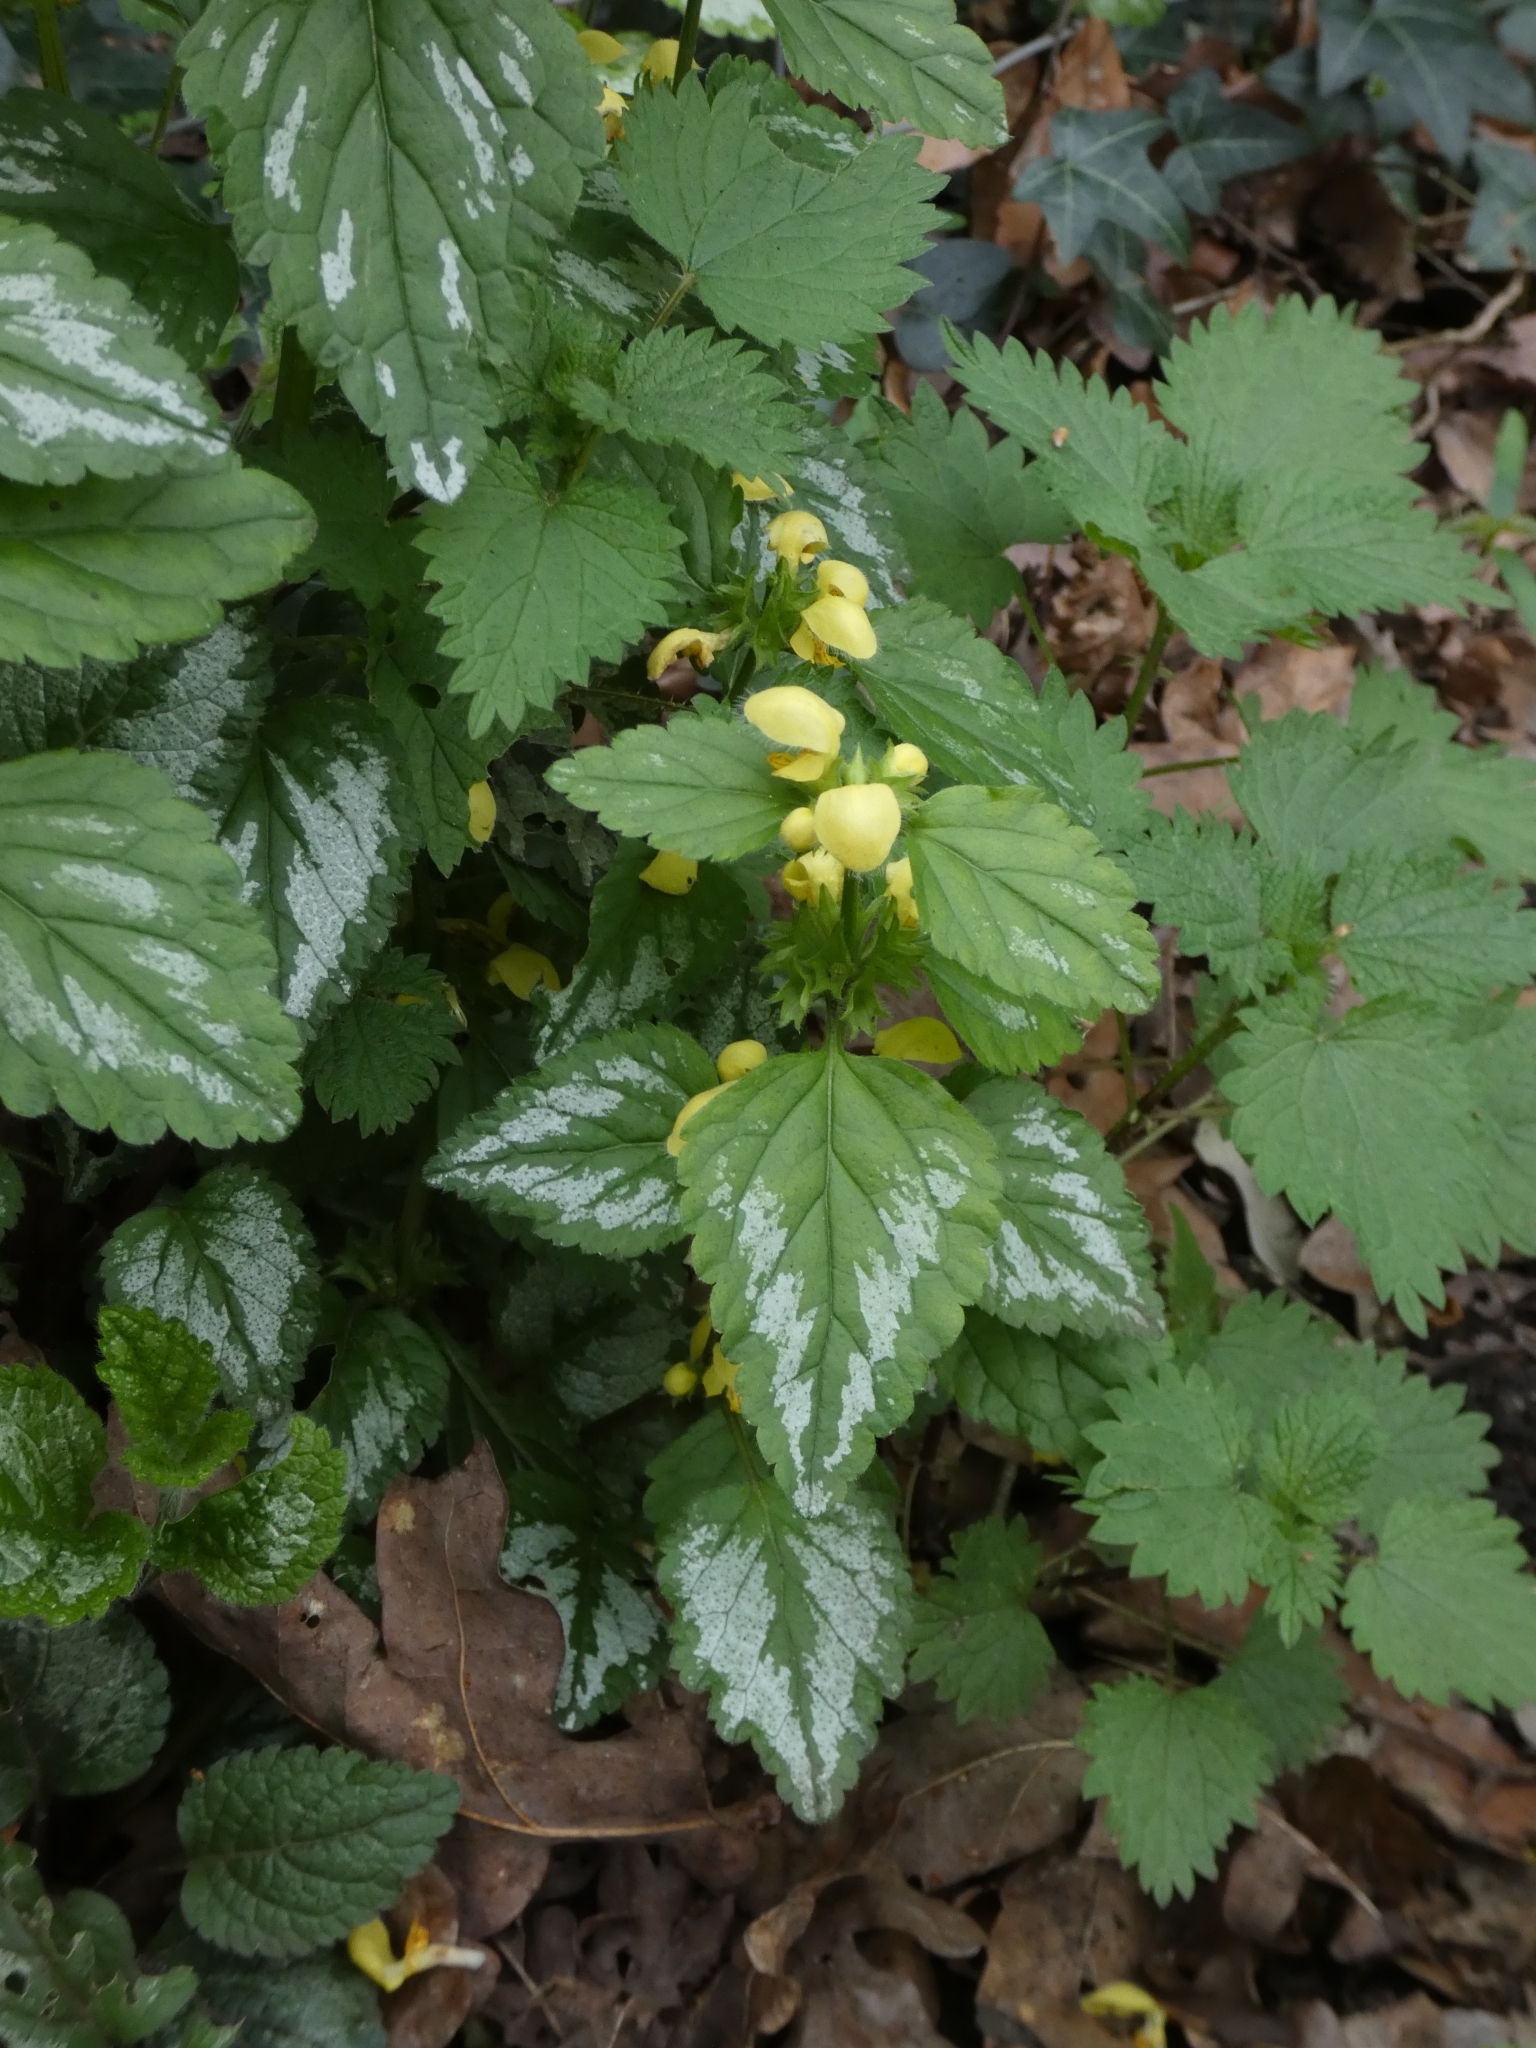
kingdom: Plantae
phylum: Tracheophyta
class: Magnoliopsida
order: Lamiales
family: Lamiaceae
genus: Lamium
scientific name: Lamium galeobdolon
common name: Yellow archangel
